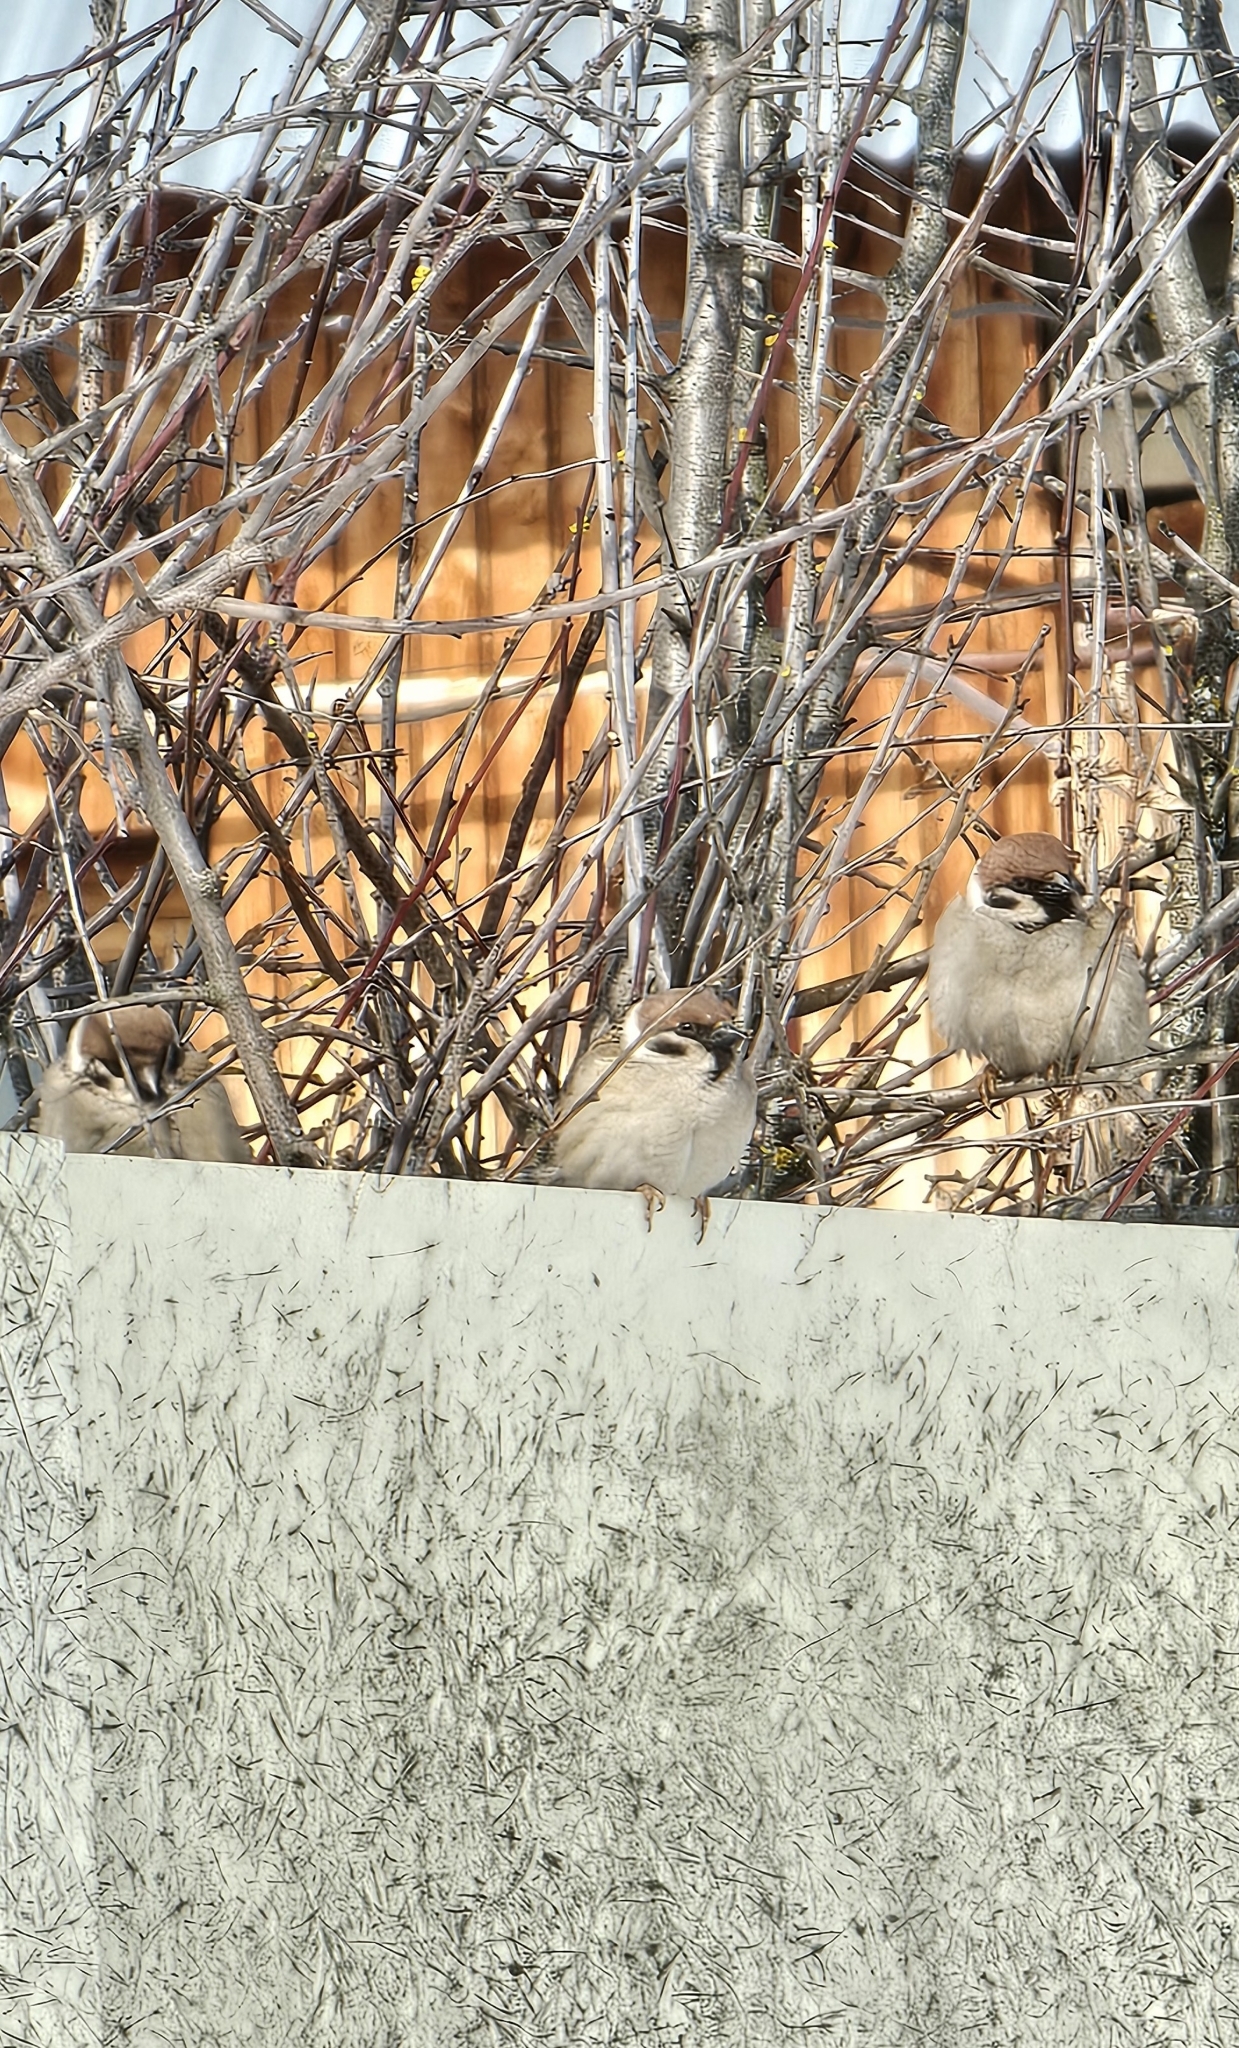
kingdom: Animalia
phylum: Chordata
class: Aves
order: Passeriformes
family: Passeridae
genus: Passer
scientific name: Passer montanus
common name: Eurasian tree sparrow
